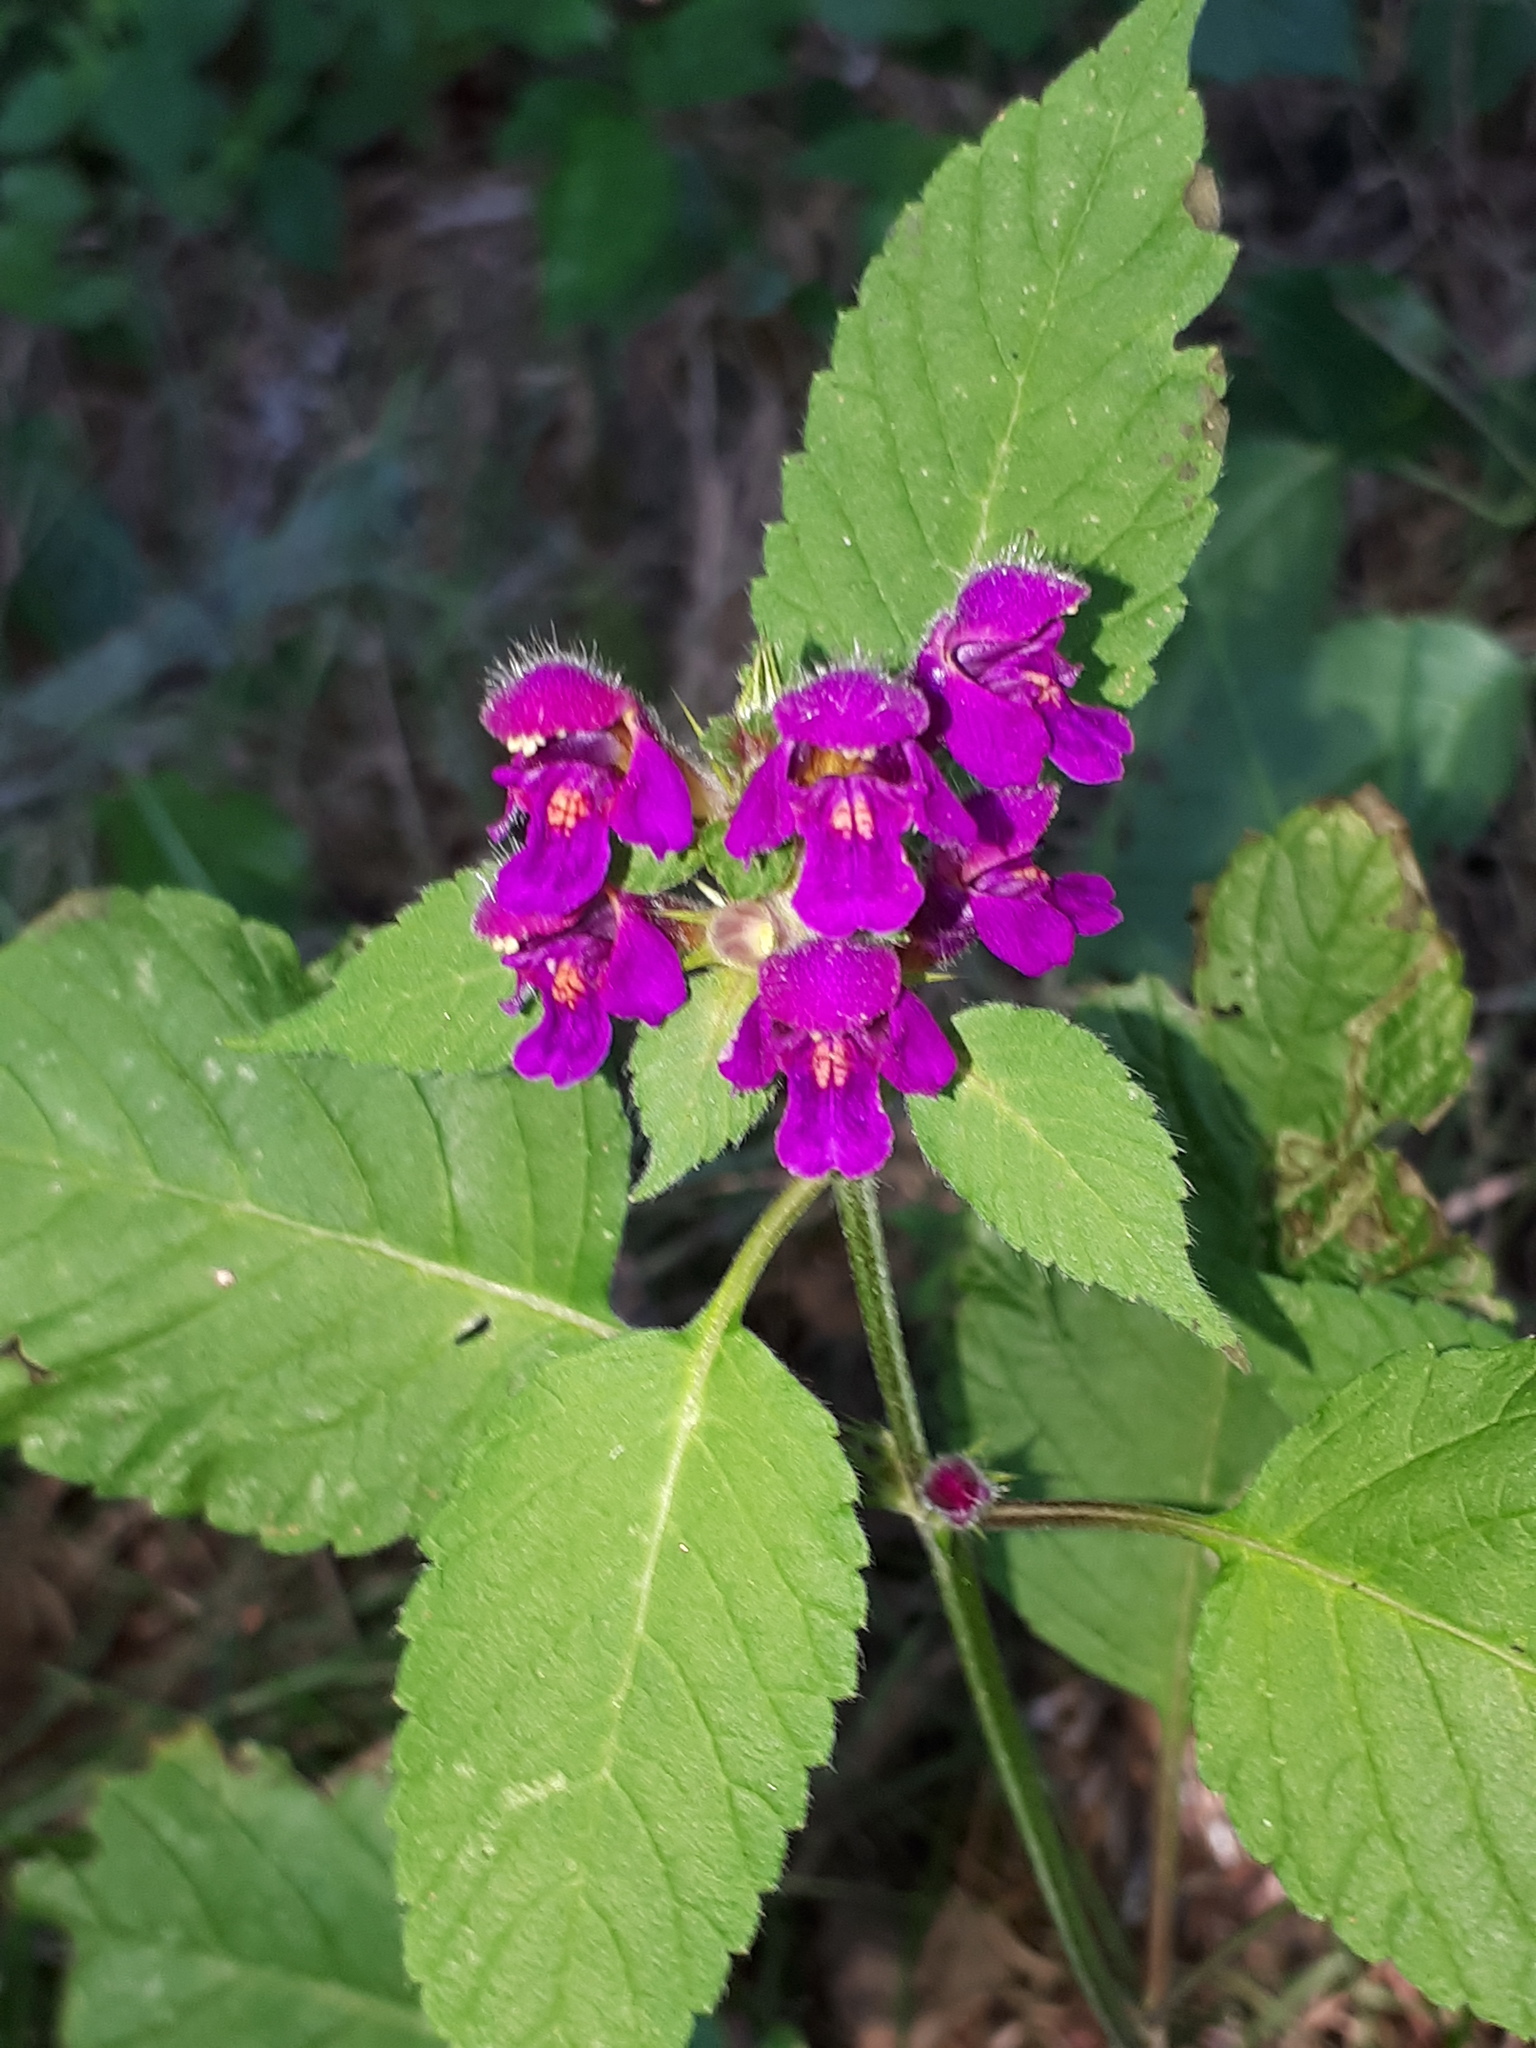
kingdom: Plantae
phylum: Tracheophyta
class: Magnoliopsida
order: Lamiales
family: Lamiaceae
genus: Galeopsis
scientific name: Galeopsis pubescens
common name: Downy hemp-nettle
